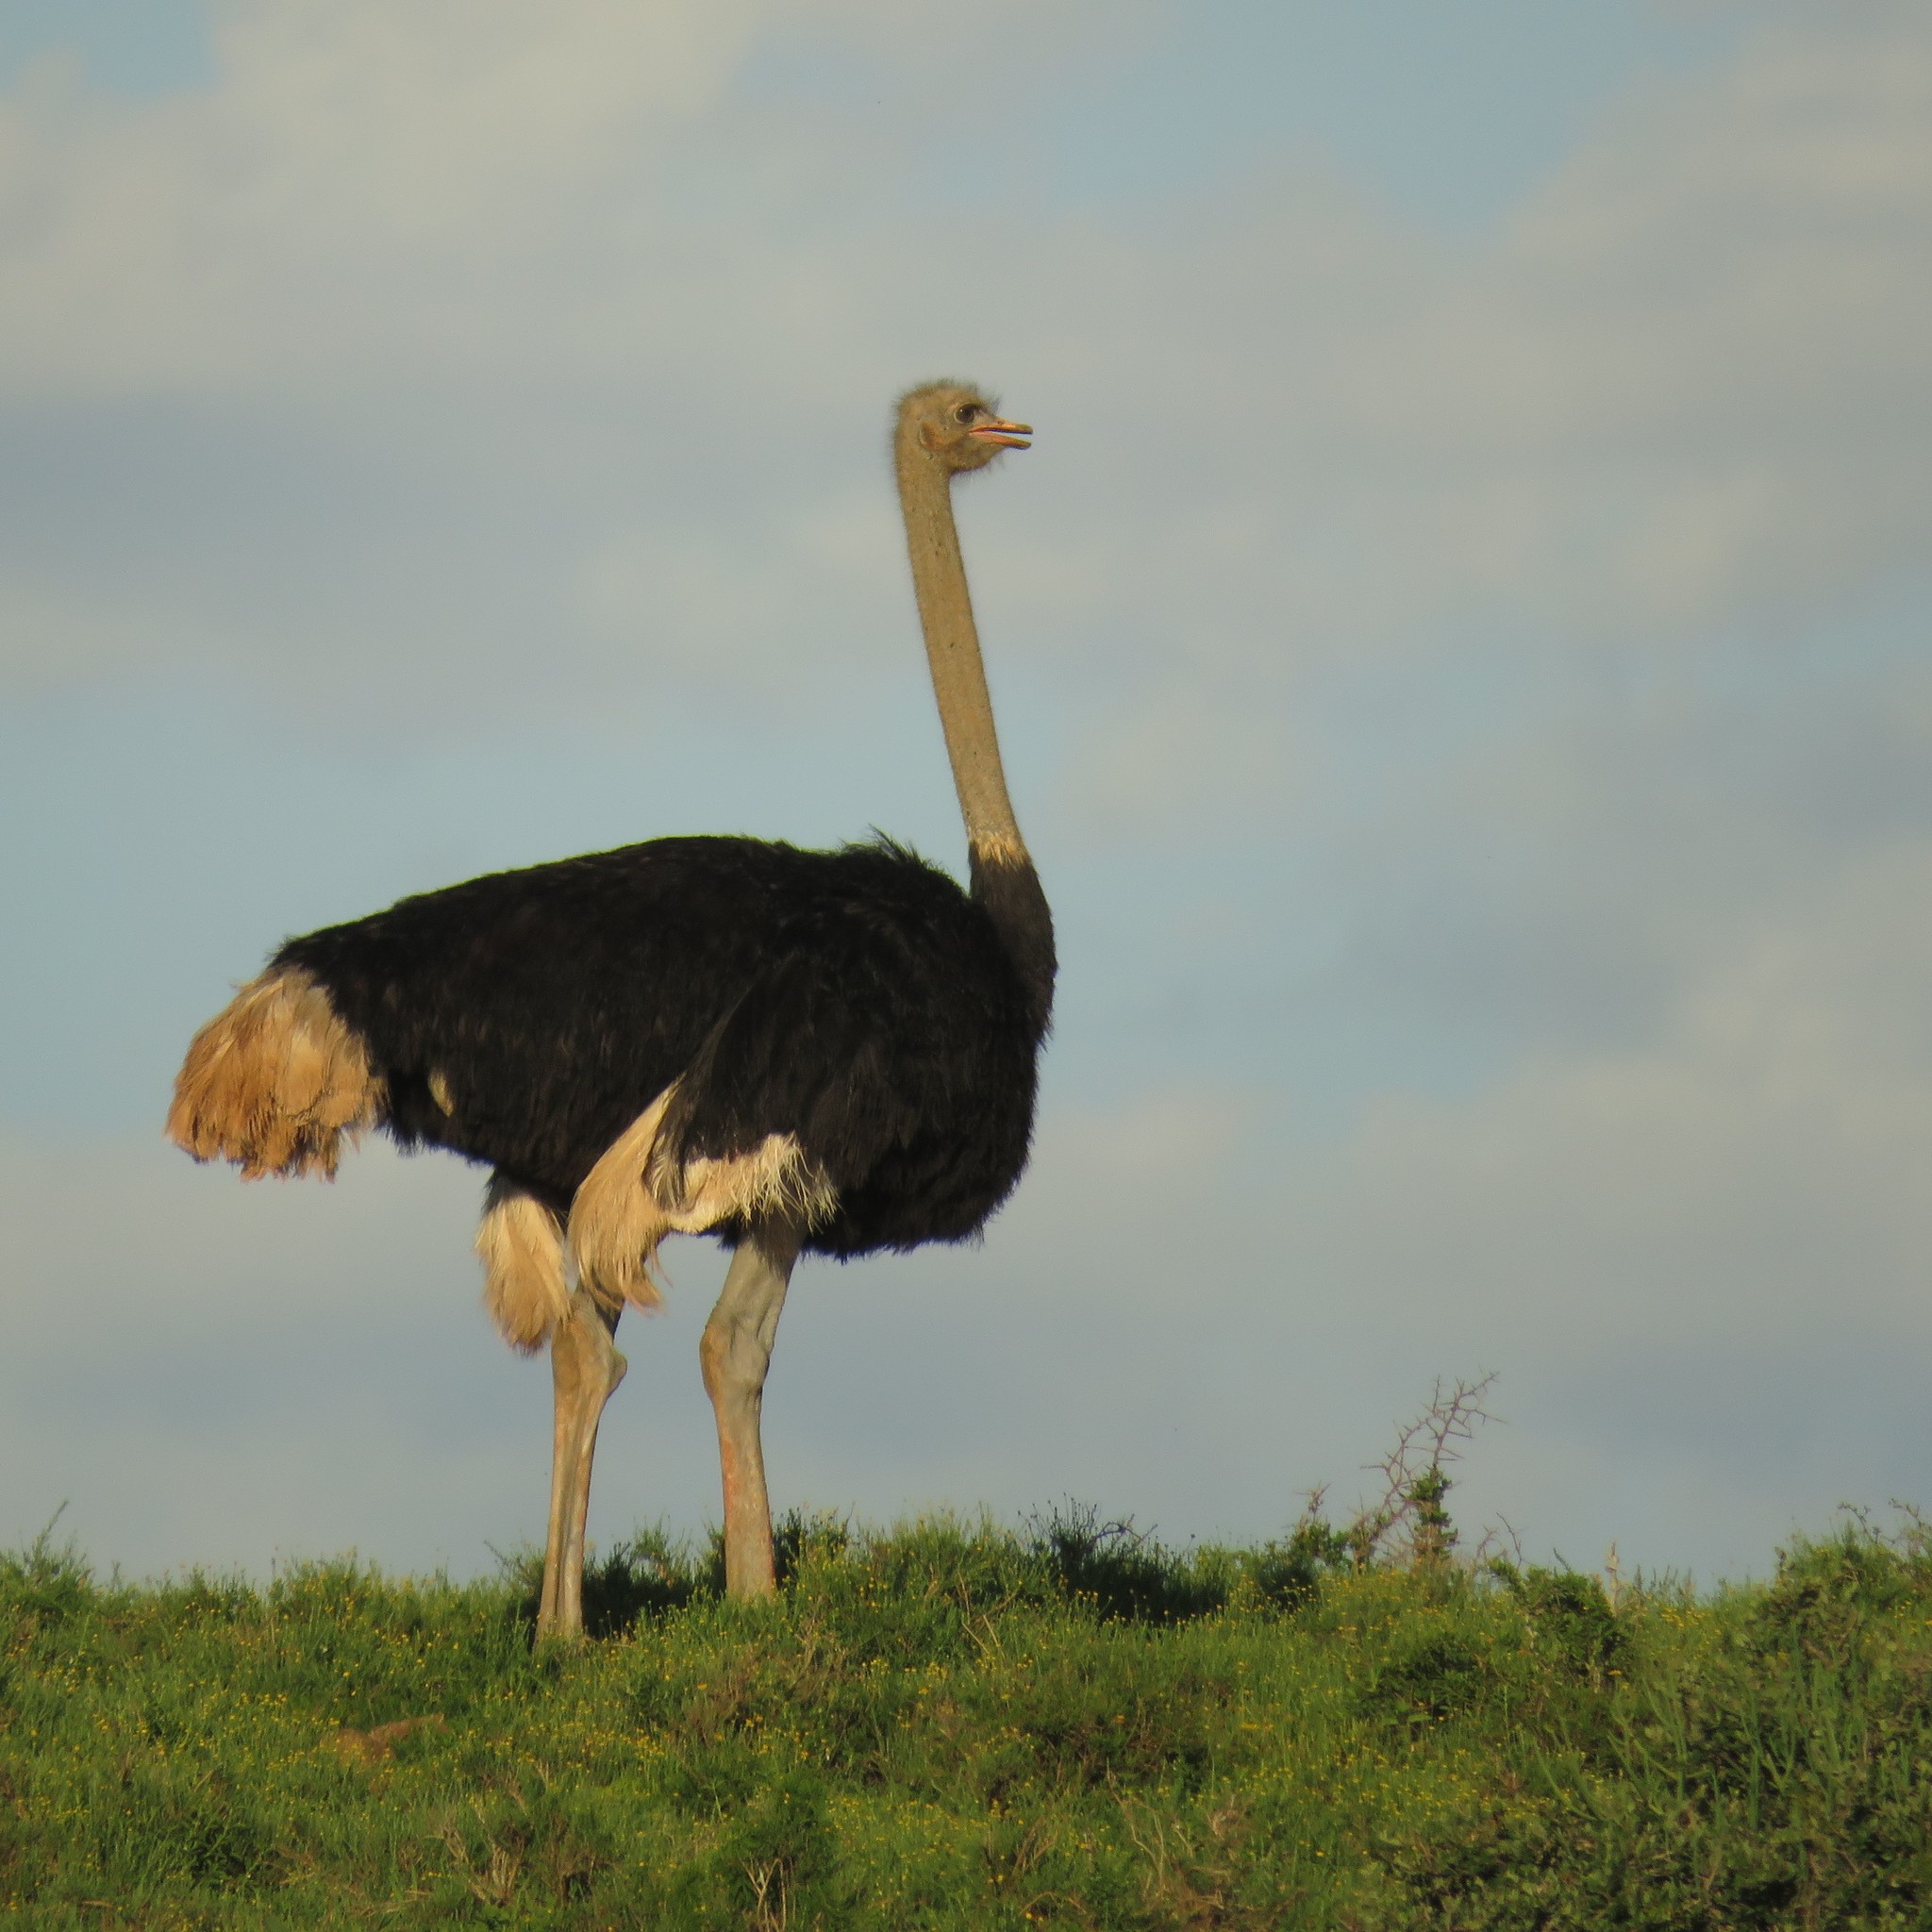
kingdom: Animalia
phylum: Chordata
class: Aves
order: Struthioniformes
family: Struthionidae
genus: Struthio
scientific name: Struthio camelus
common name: Common ostrich
